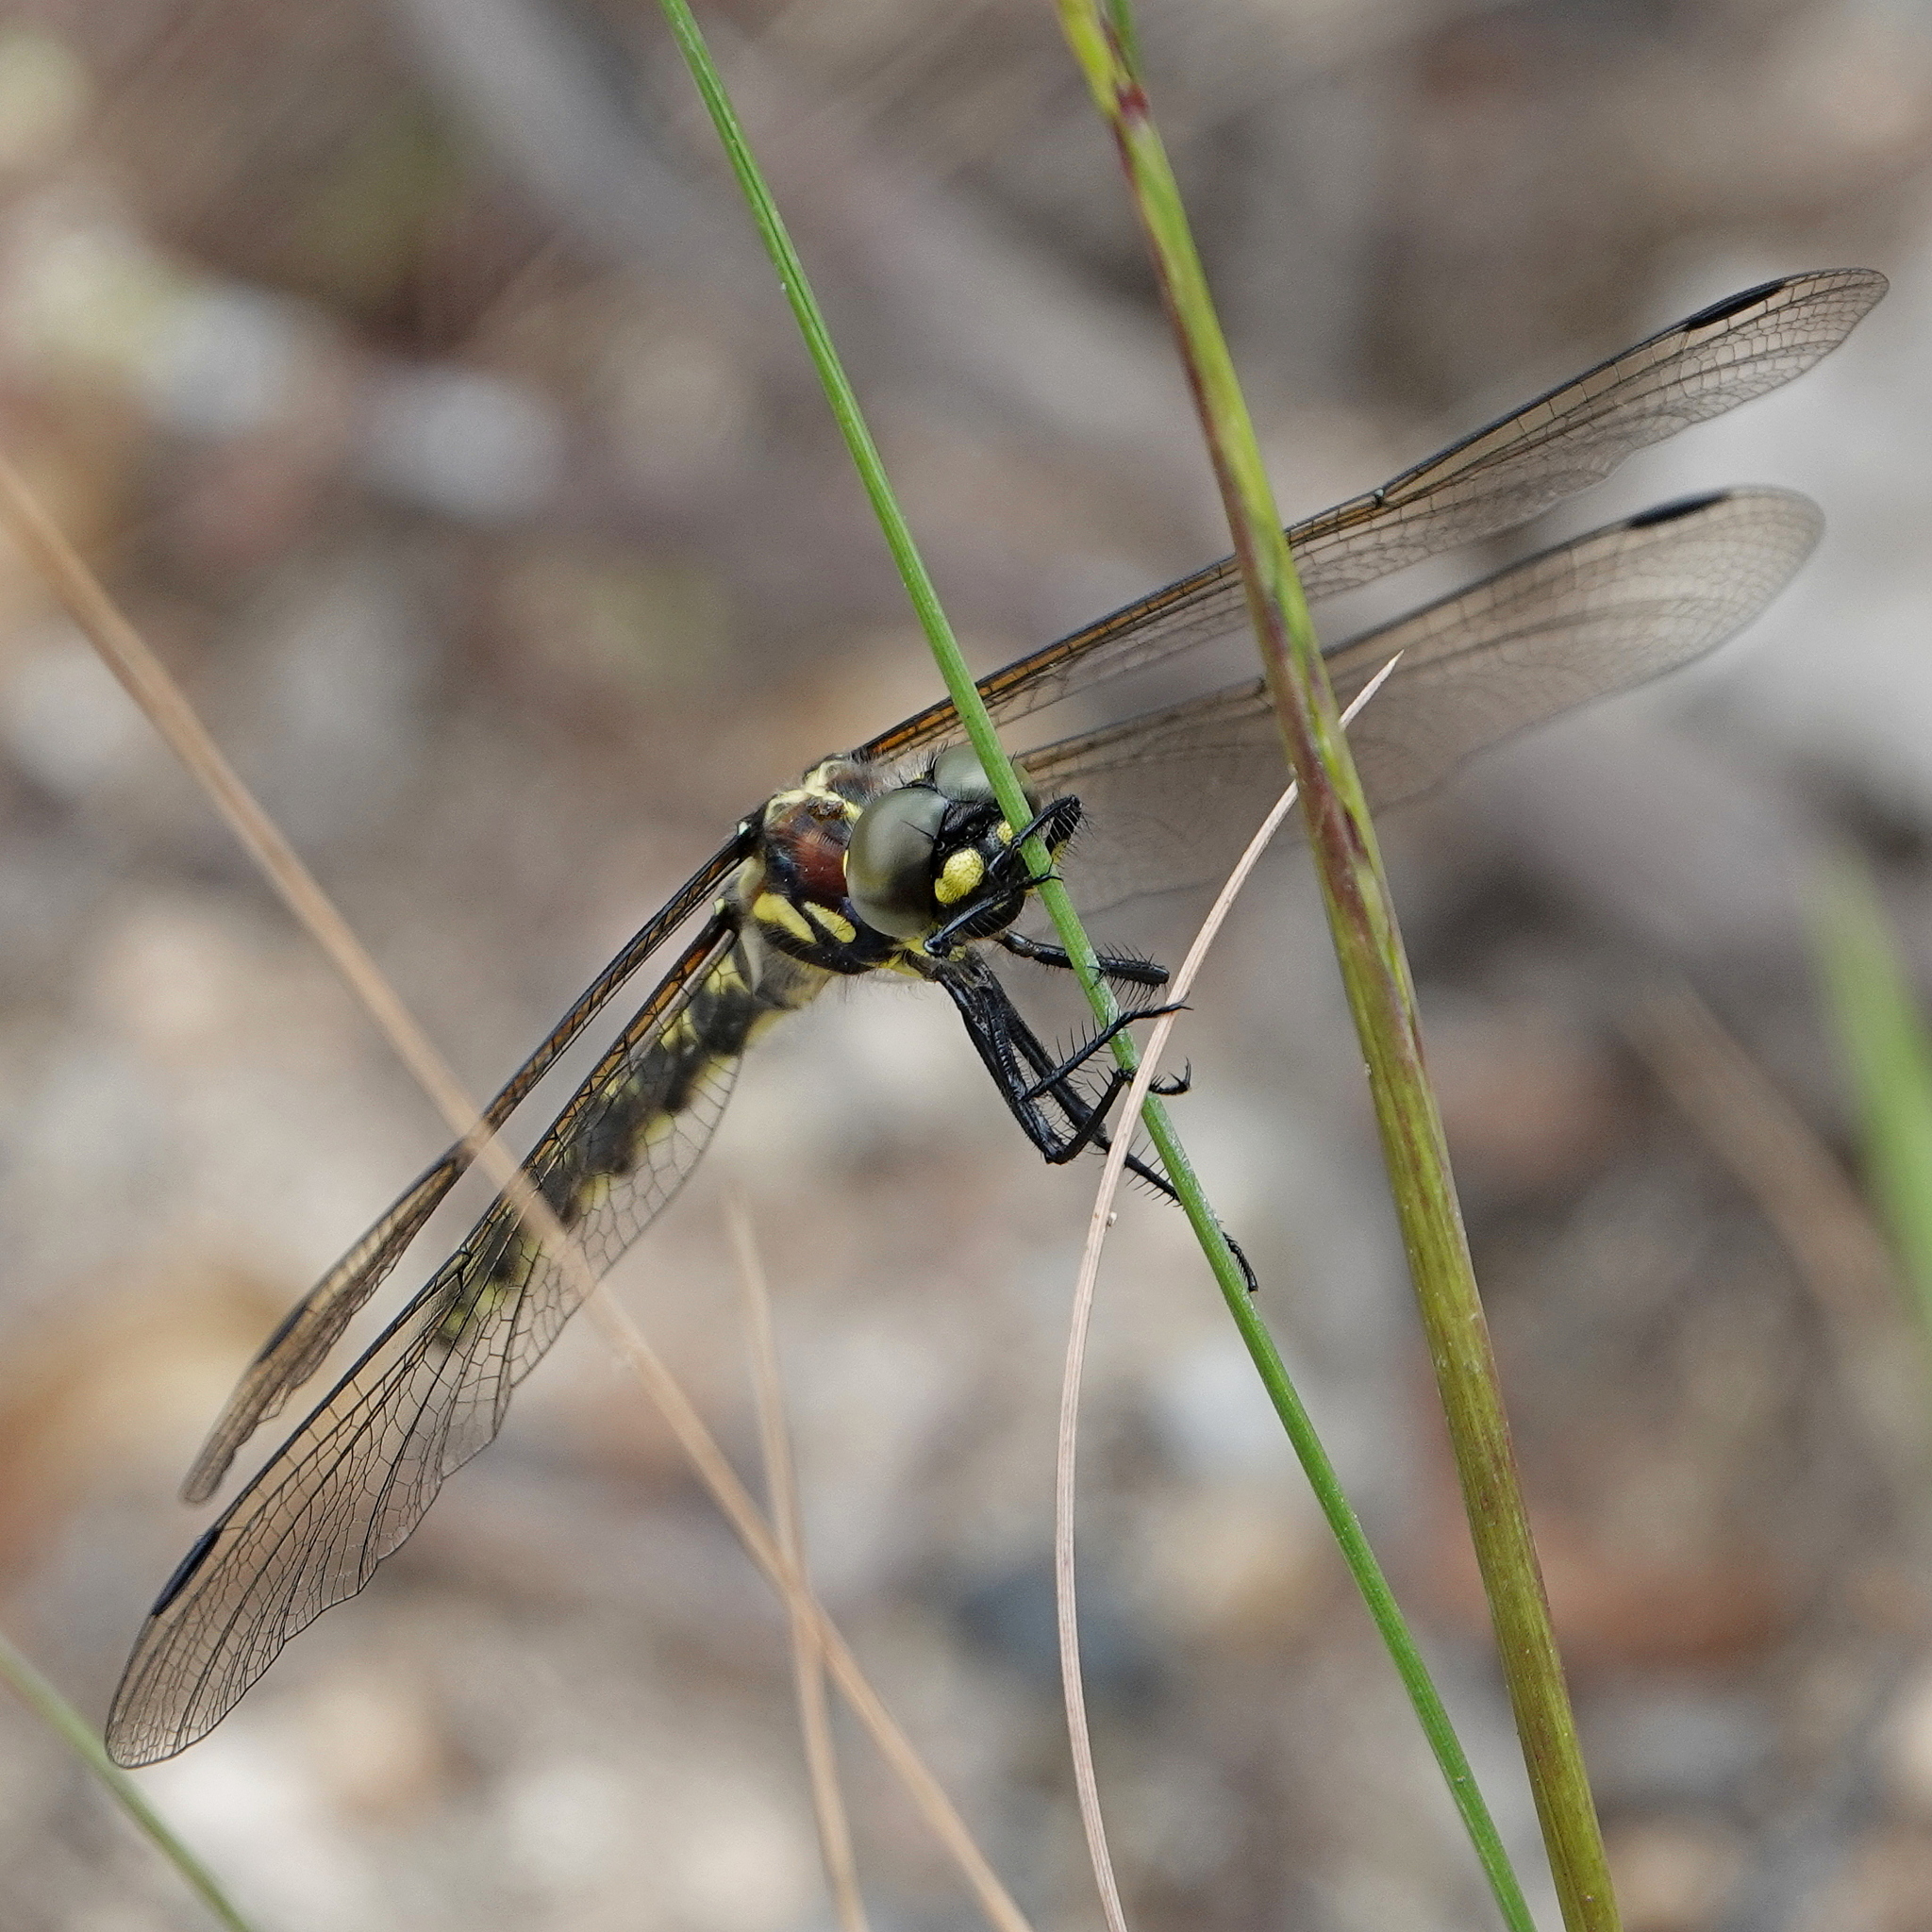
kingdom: Animalia
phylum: Arthropoda
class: Insecta
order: Odonata
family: Synthemistidae
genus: Eusynthemis
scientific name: Eusynthemis brevistyla
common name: Small tigertail
